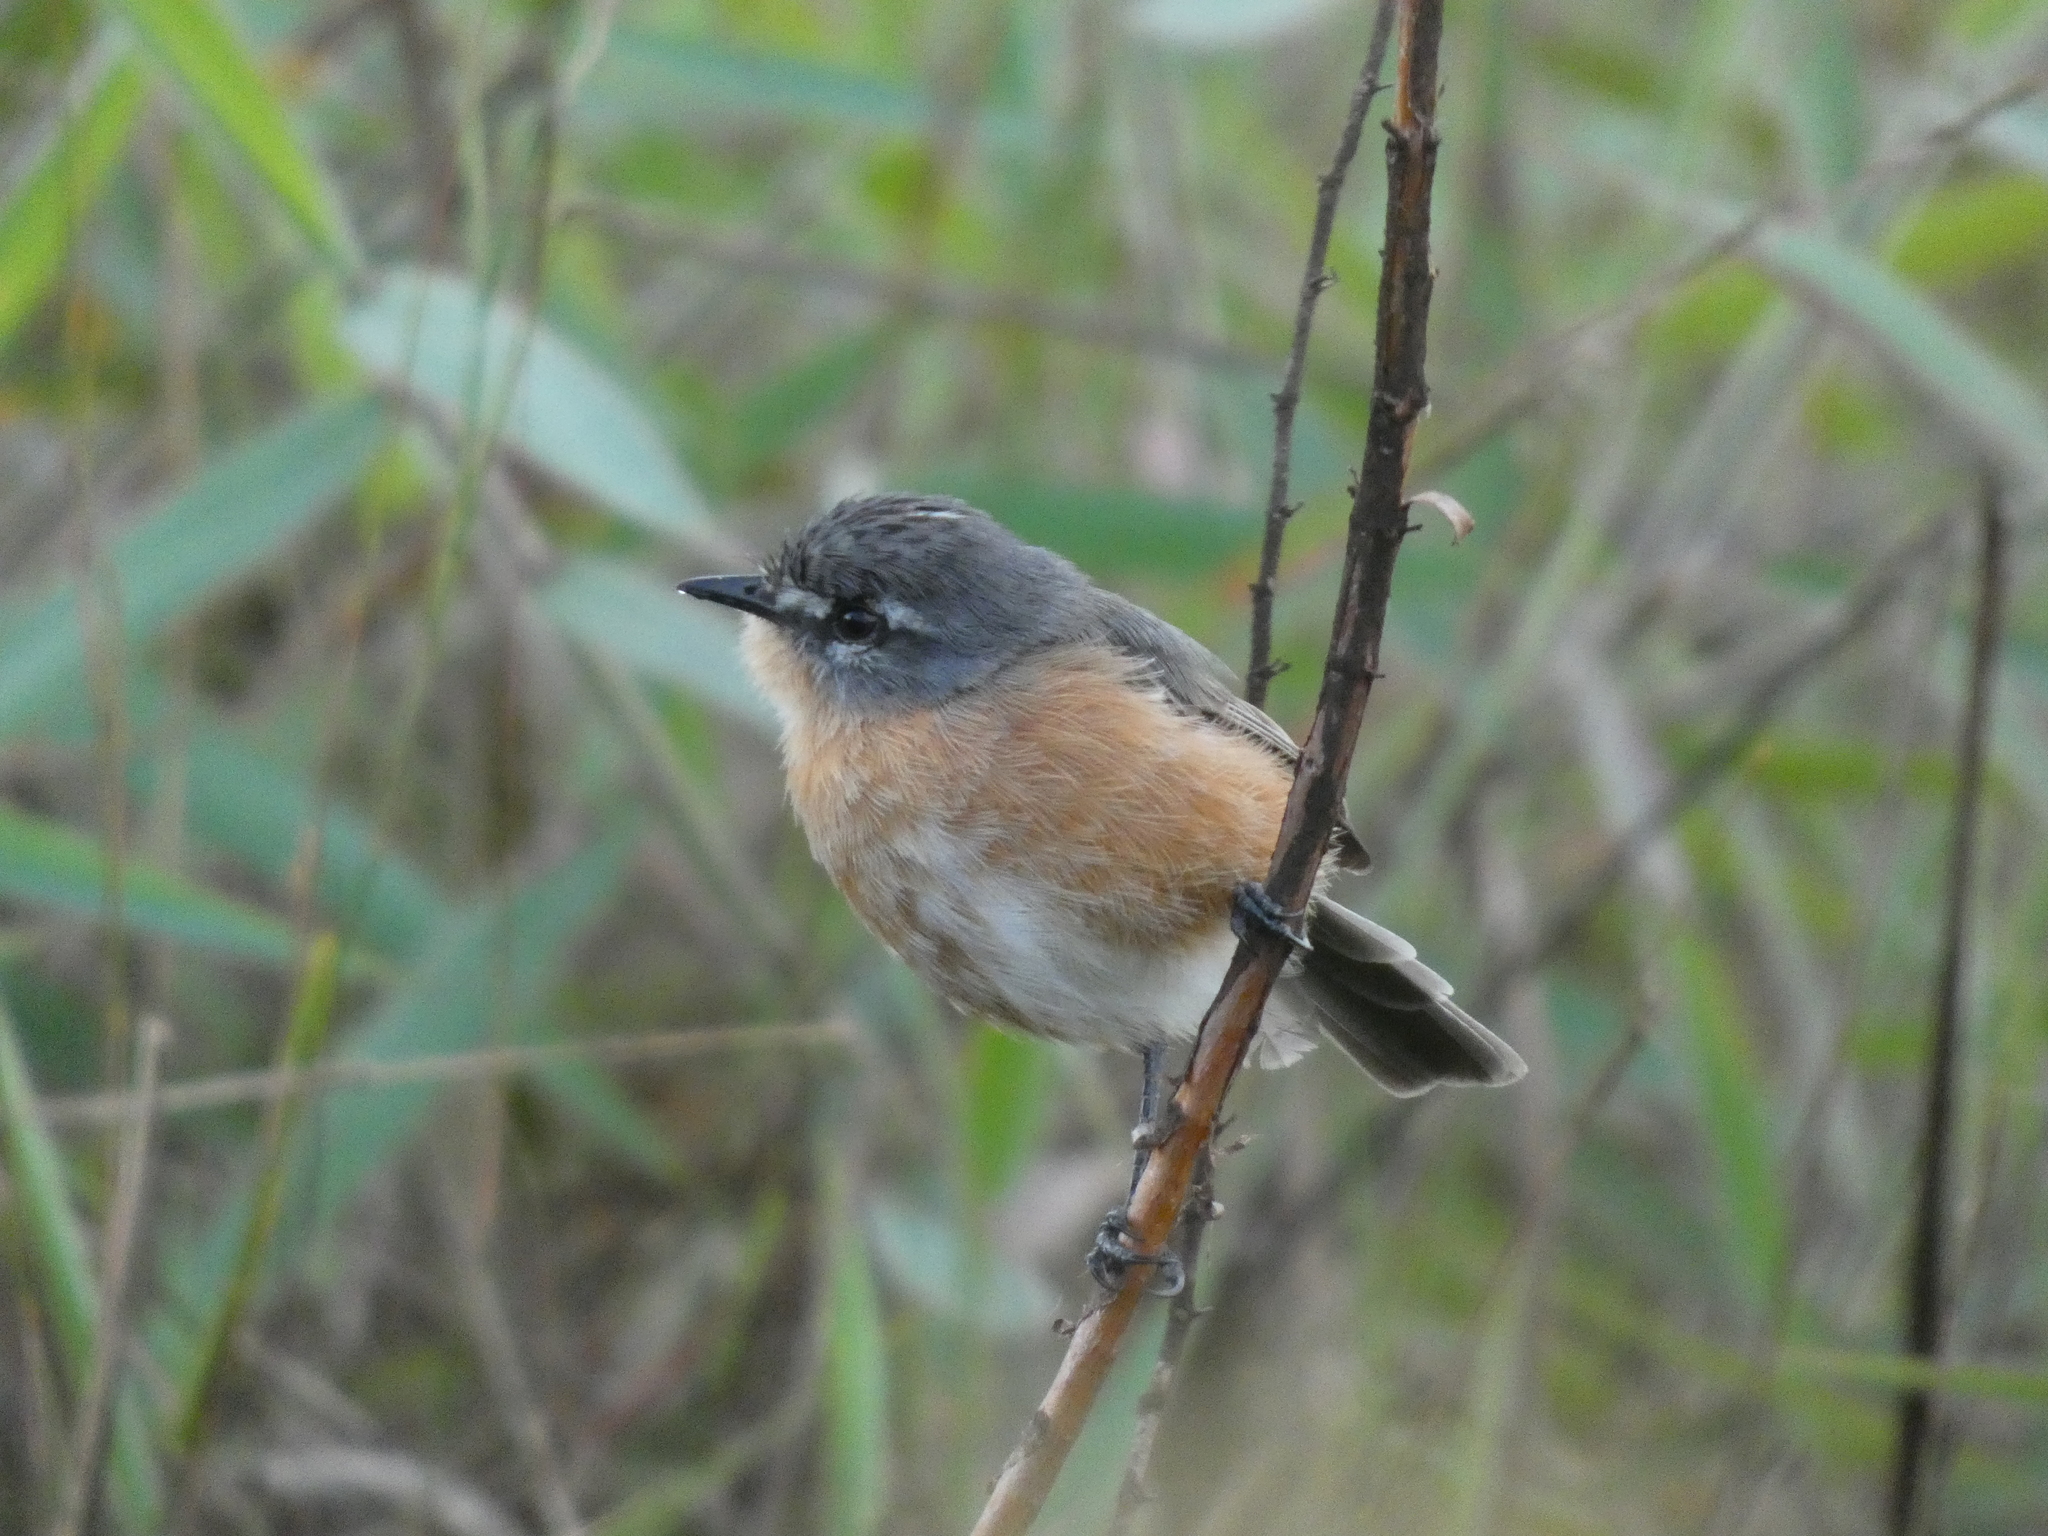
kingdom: Animalia
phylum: Chordata
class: Aves
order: Passeriformes
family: Tyrannidae
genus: Polystictus
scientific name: Polystictus superciliaris
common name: Grey-backed tachuri
